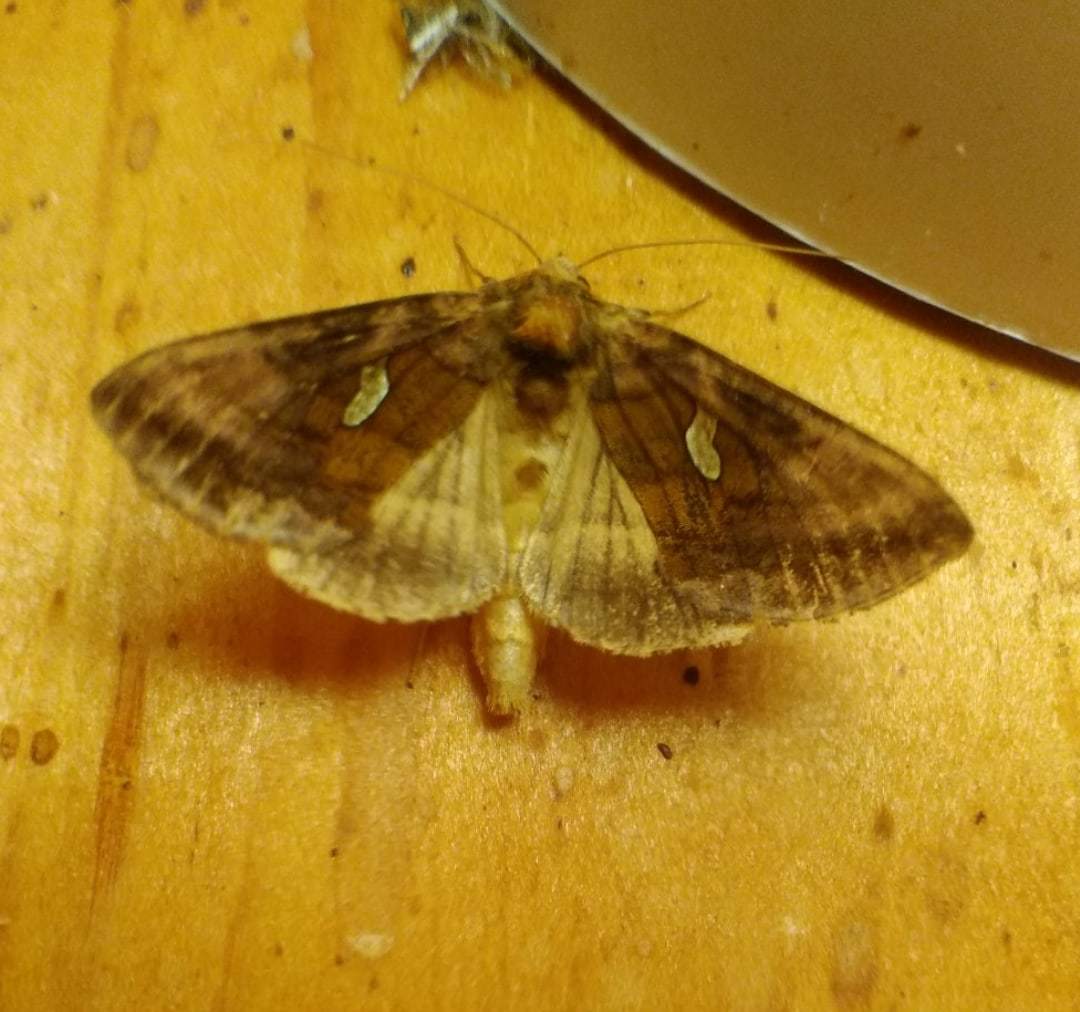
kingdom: Animalia
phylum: Arthropoda
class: Insecta
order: Lepidoptera
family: Noctuidae
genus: Autographa
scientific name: Autographa excelsa
